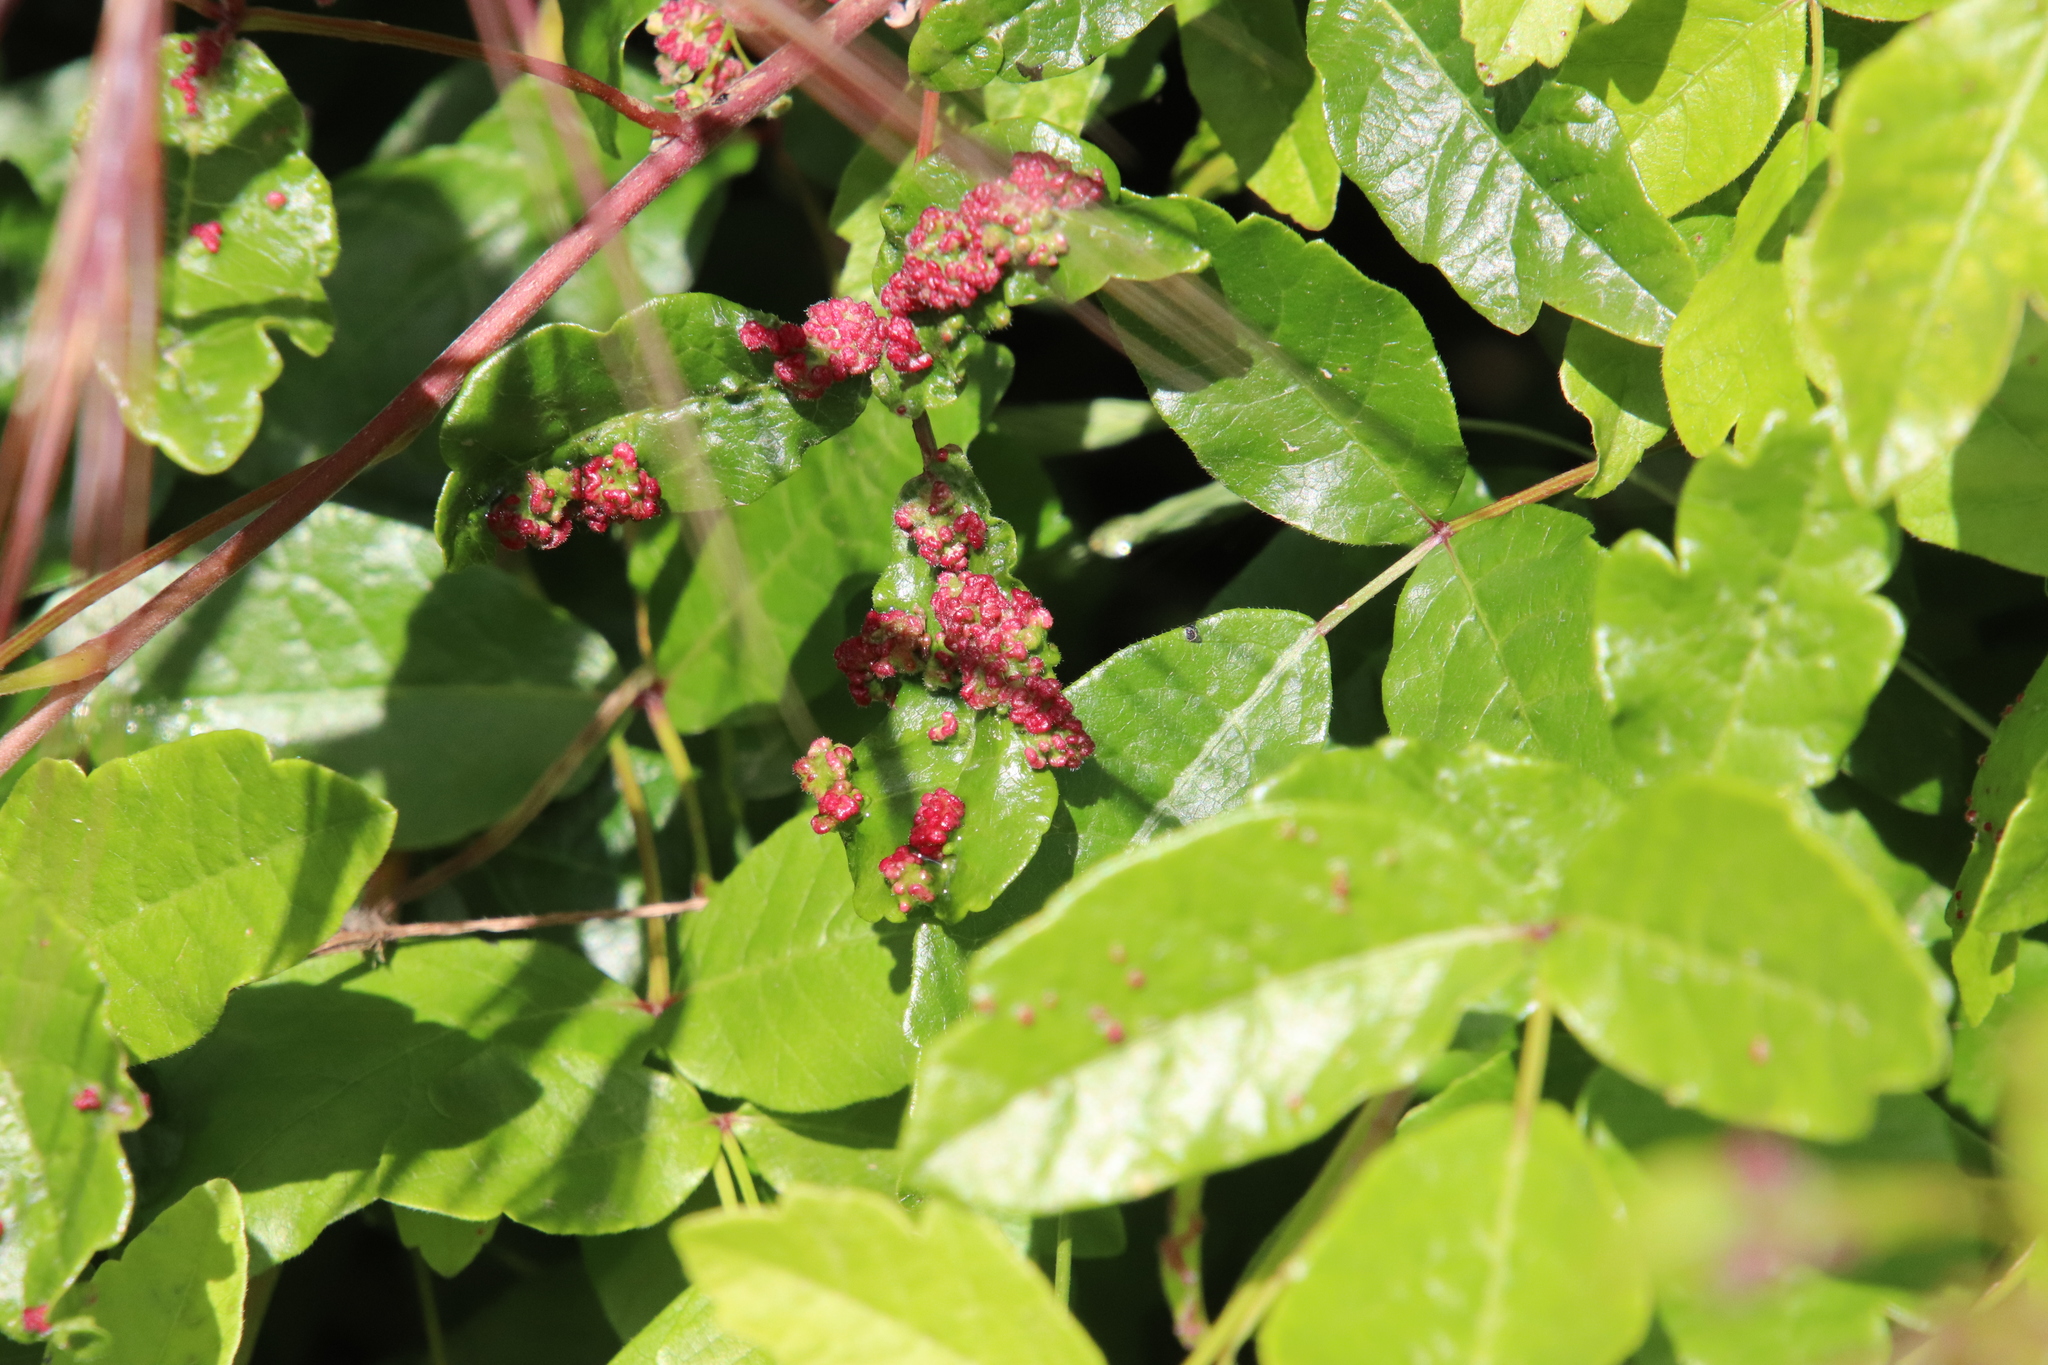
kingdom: Animalia
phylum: Arthropoda
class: Arachnida
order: Trombidiformes
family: Eriophyidae
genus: Aculops
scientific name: Aculops
